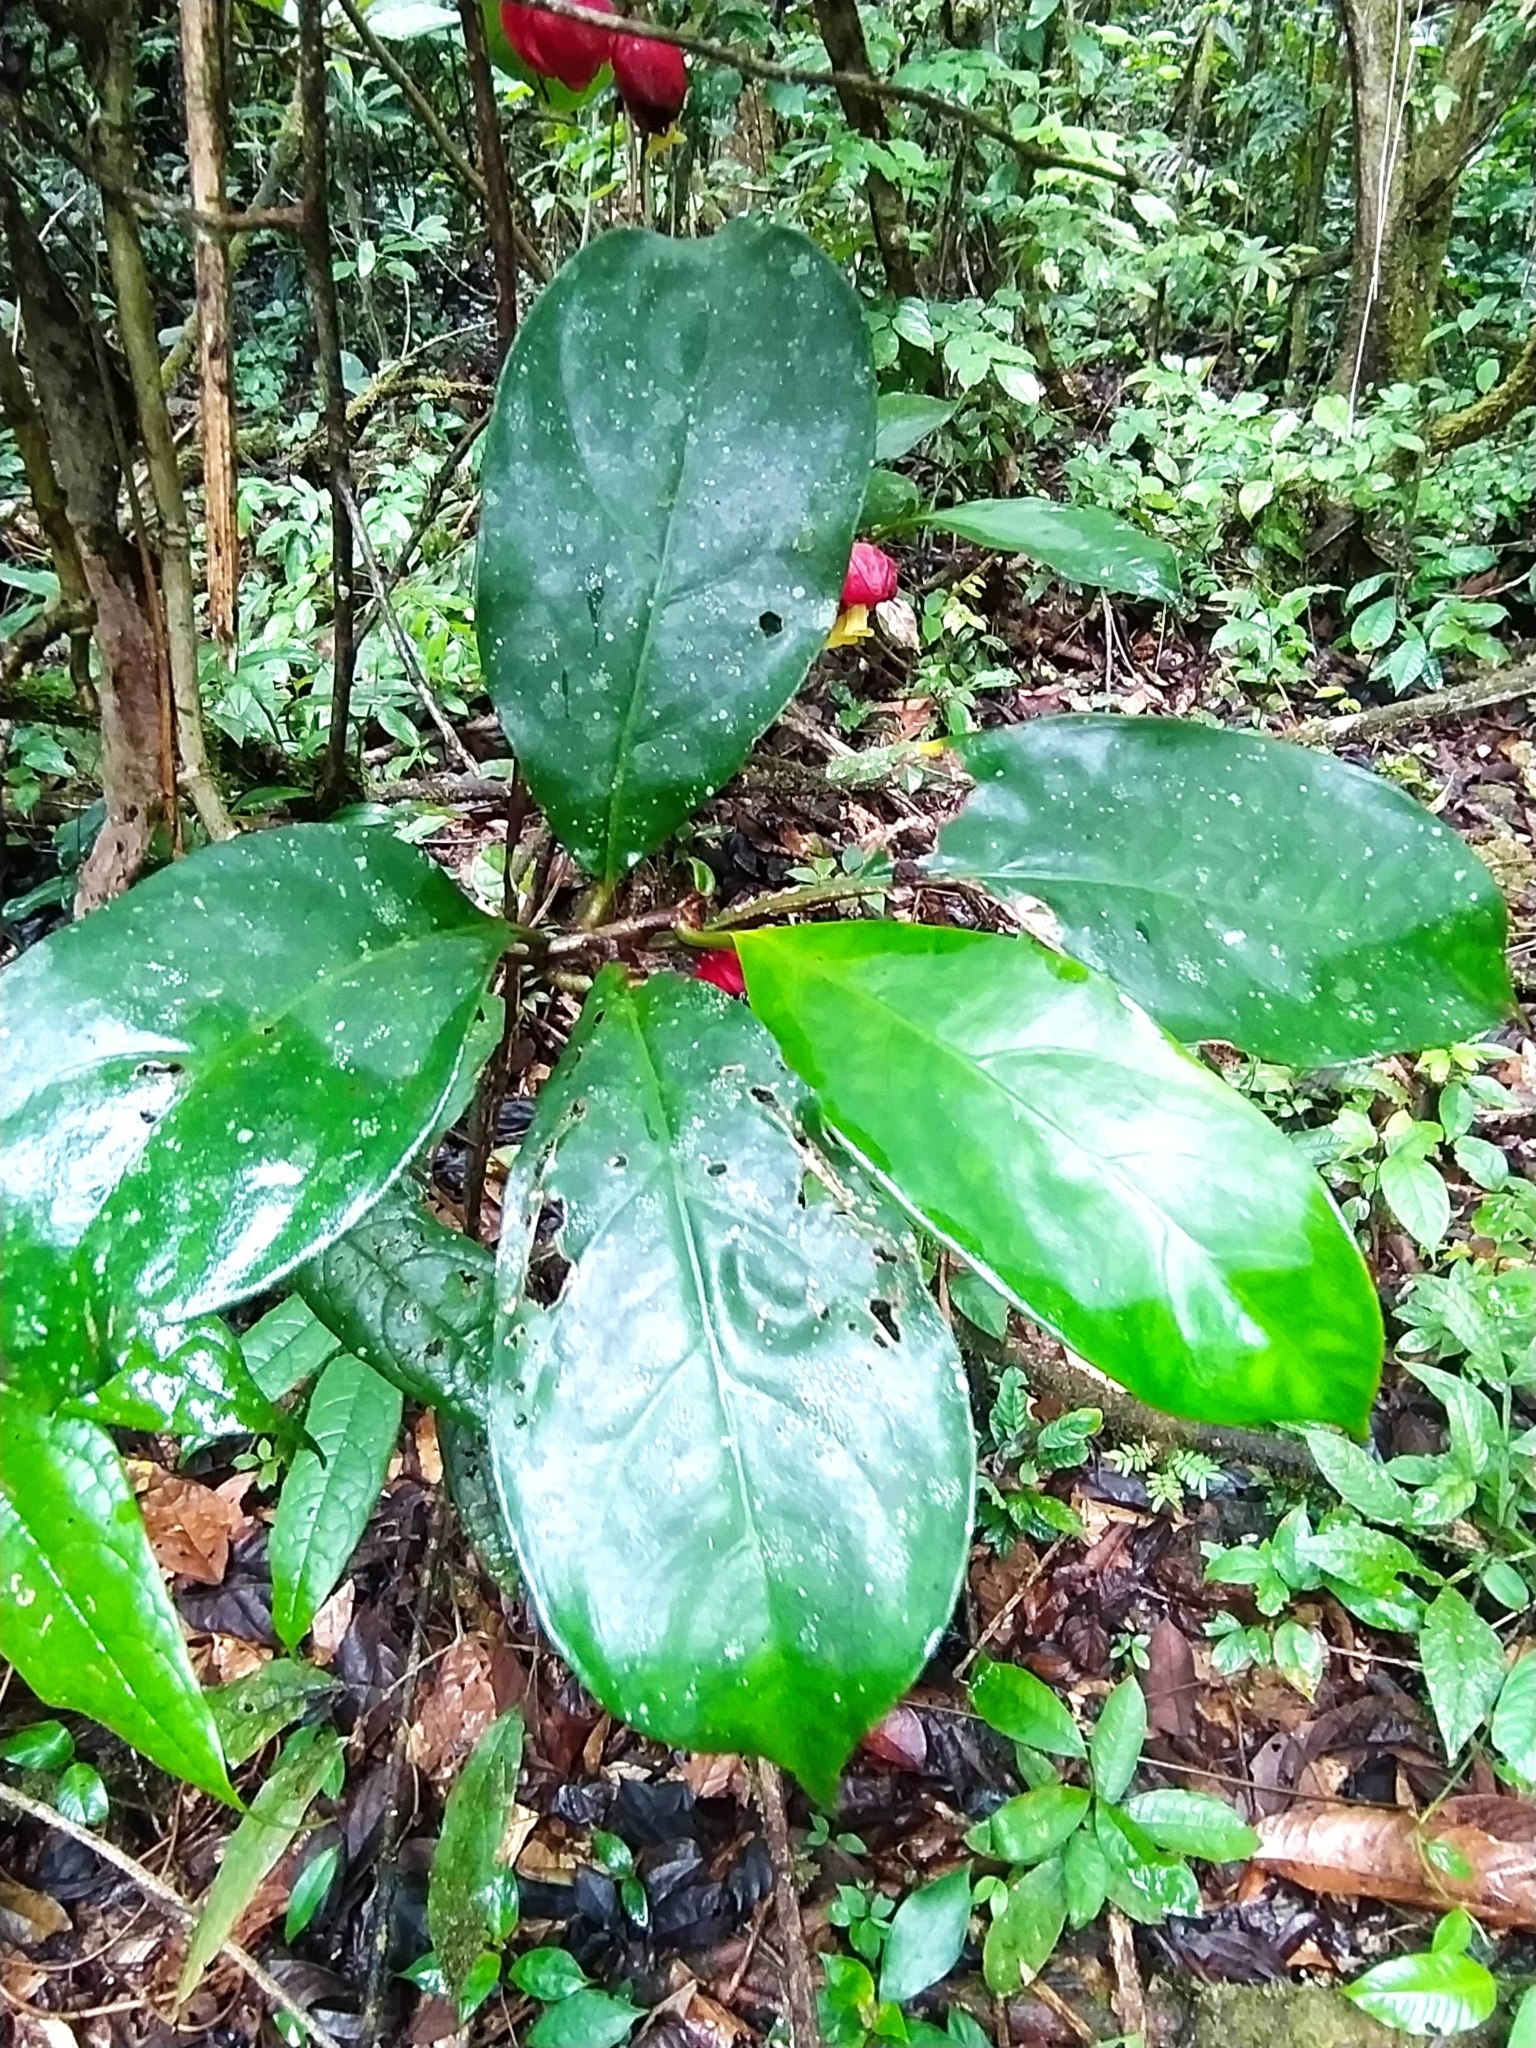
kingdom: Plantae
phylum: Tracheophyta
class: Magnoliopsida
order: Lamiales
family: Gesneriaceae
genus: Drymonia
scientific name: Drymonia coccinea
